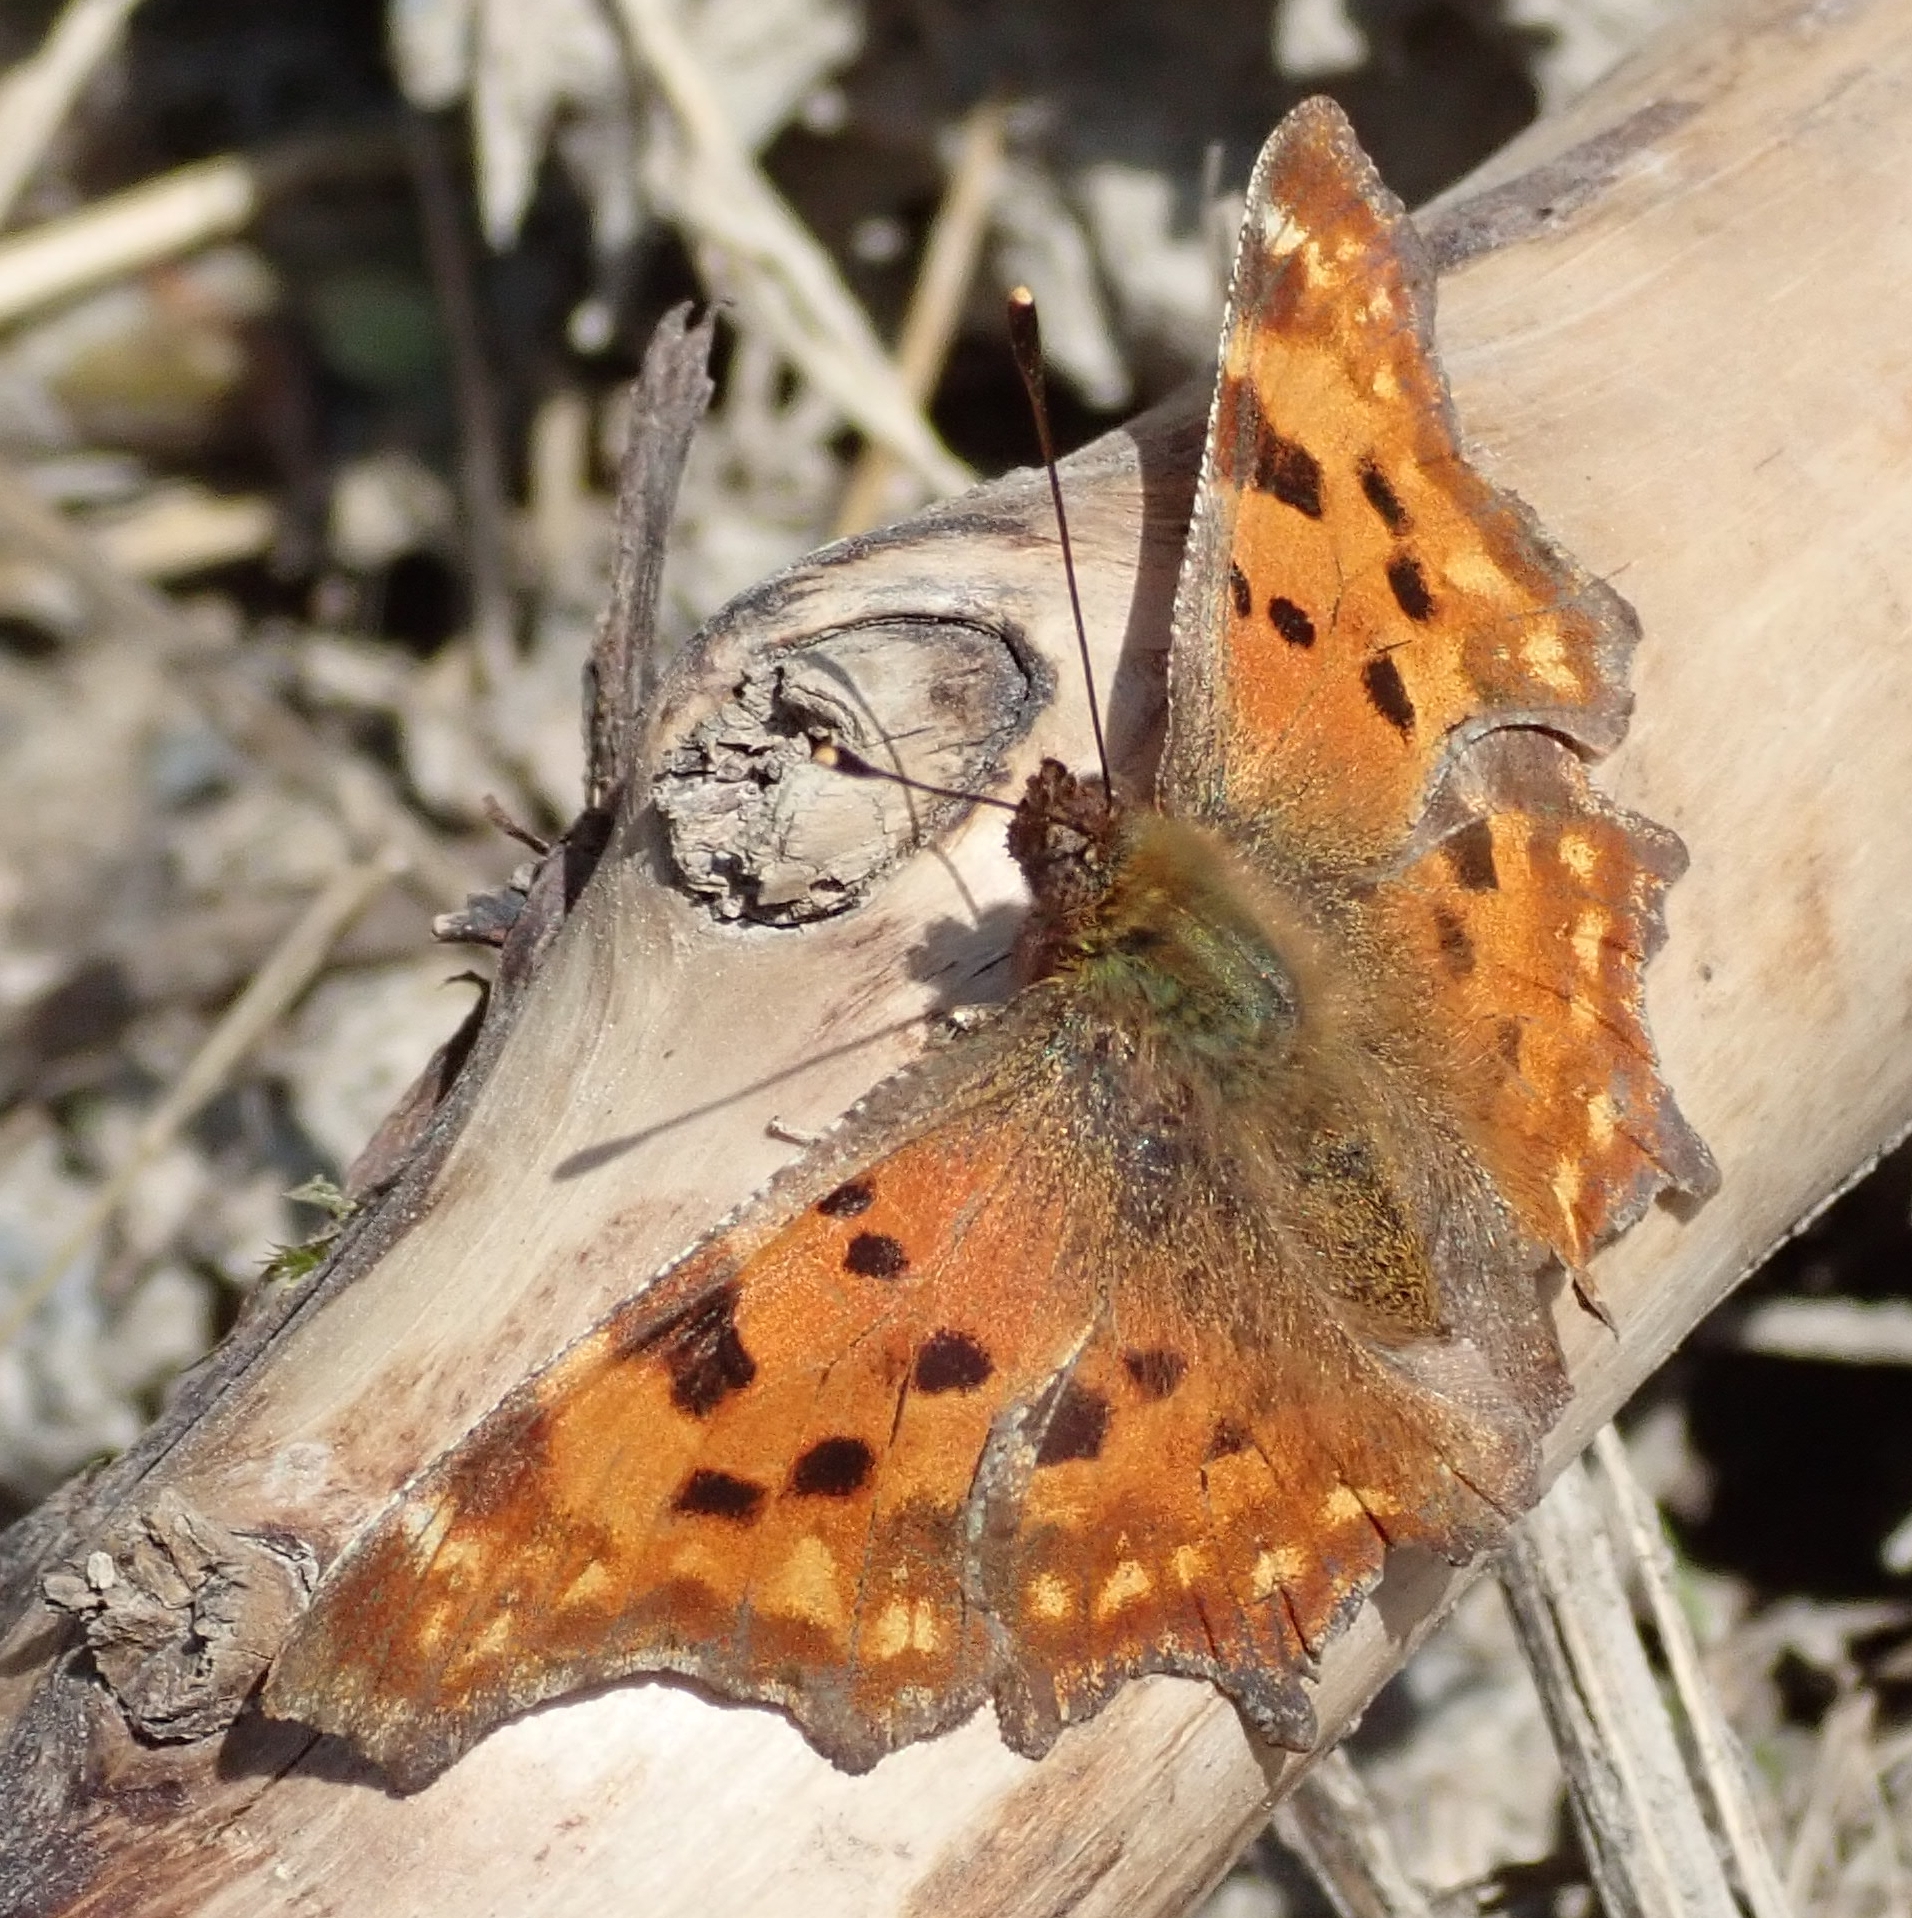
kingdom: Animalia
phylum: Arthropoda
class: Insecta
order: Lepidoptera
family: Nymphalidae
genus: Polygonia
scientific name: Polygonia c-album
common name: Comma
